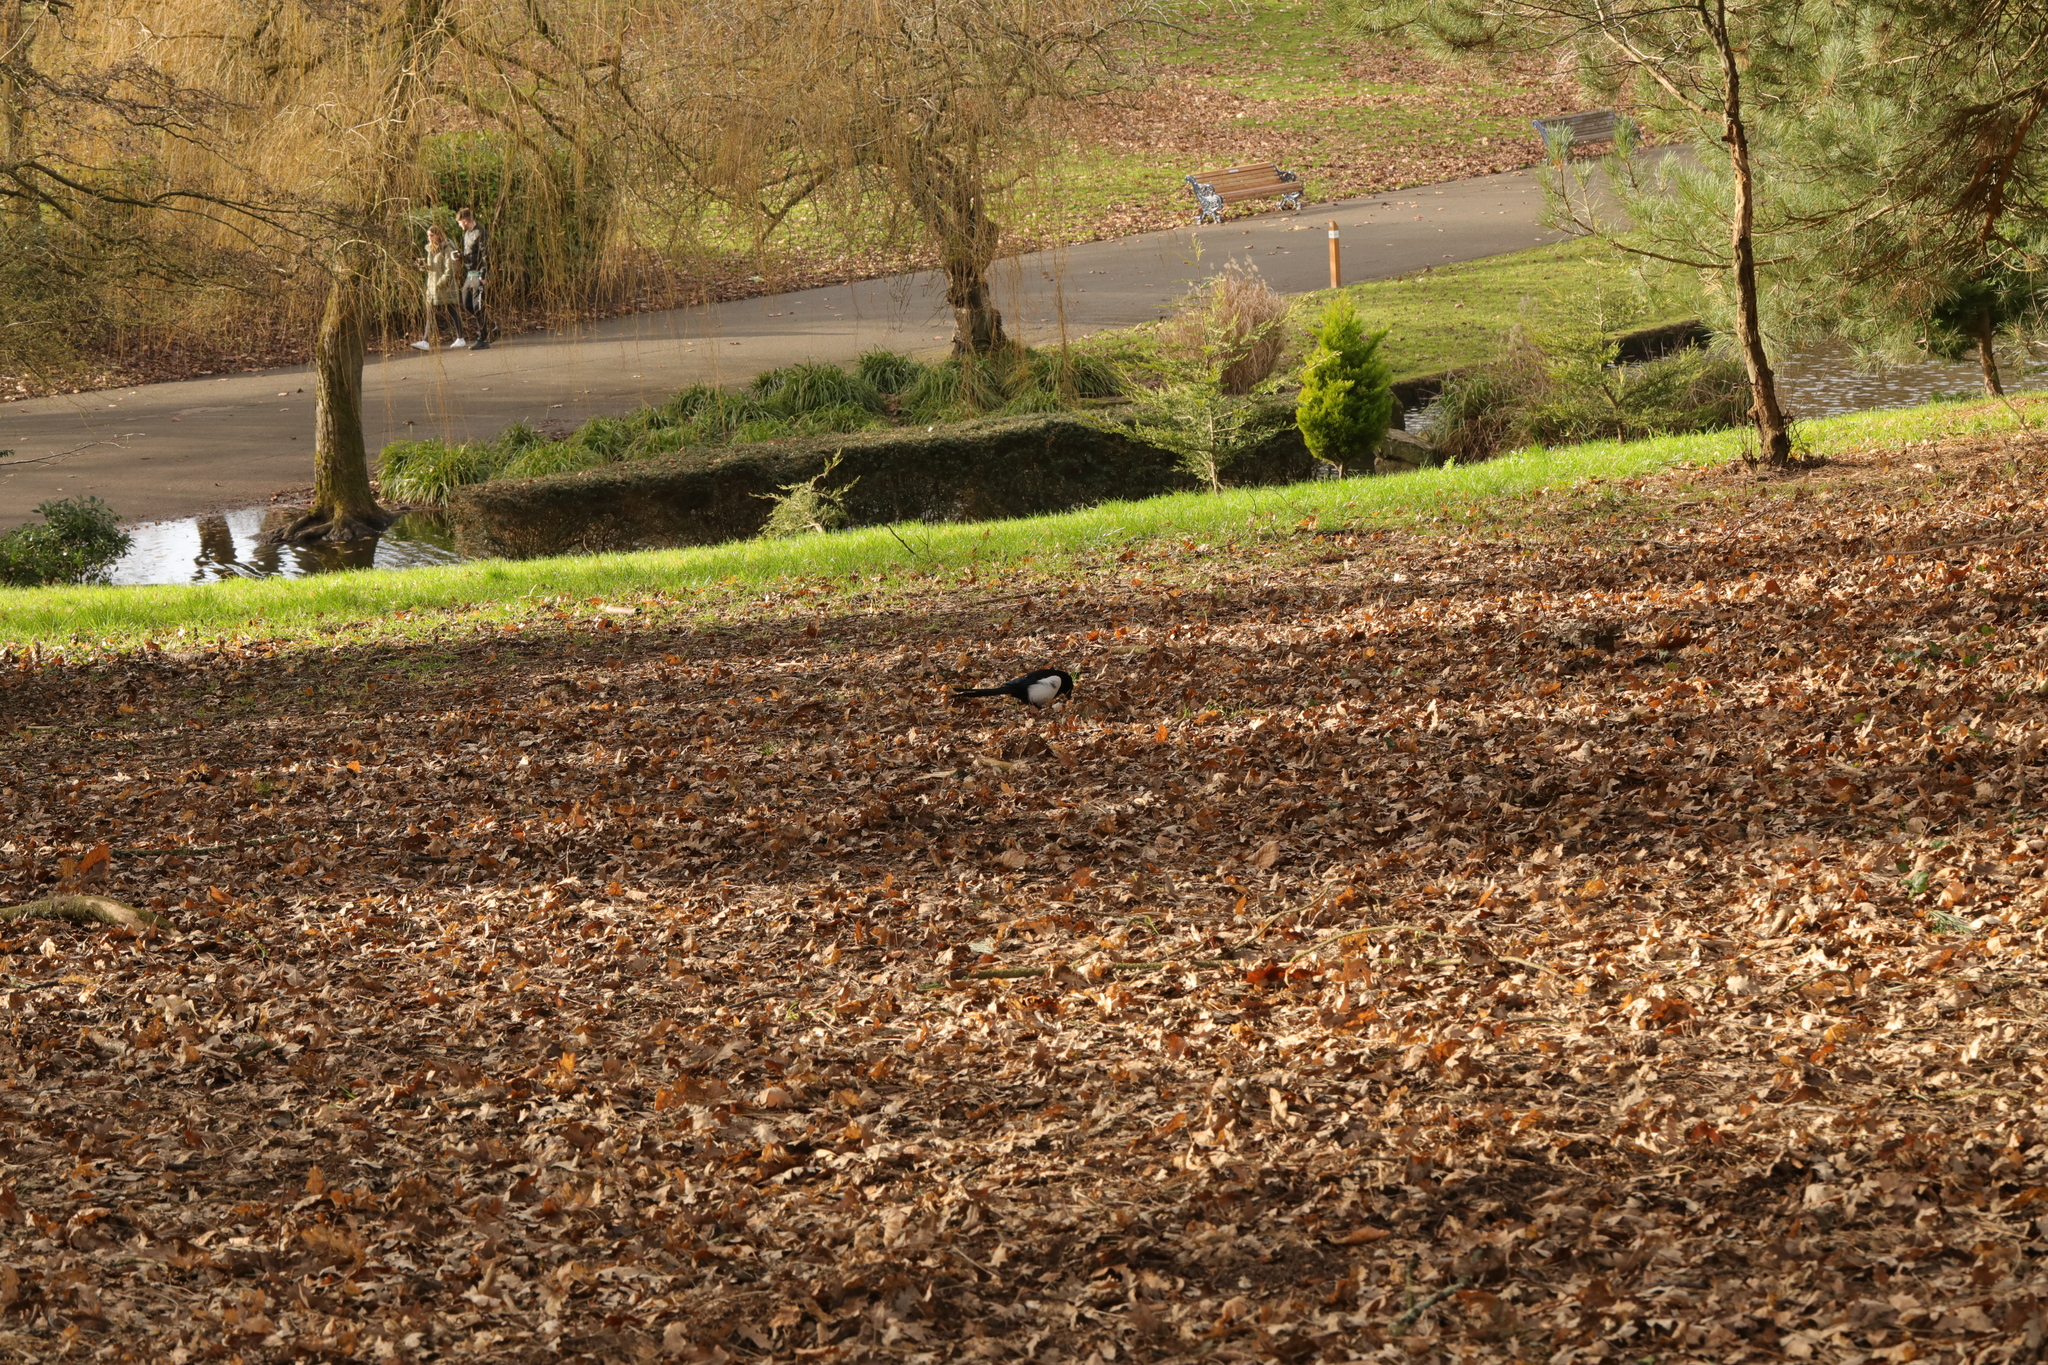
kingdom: Animalia
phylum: Chordata
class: Aves
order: Passeriformes
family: Corvidae
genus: Pica
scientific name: Pica pica
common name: Eurasian magpie
